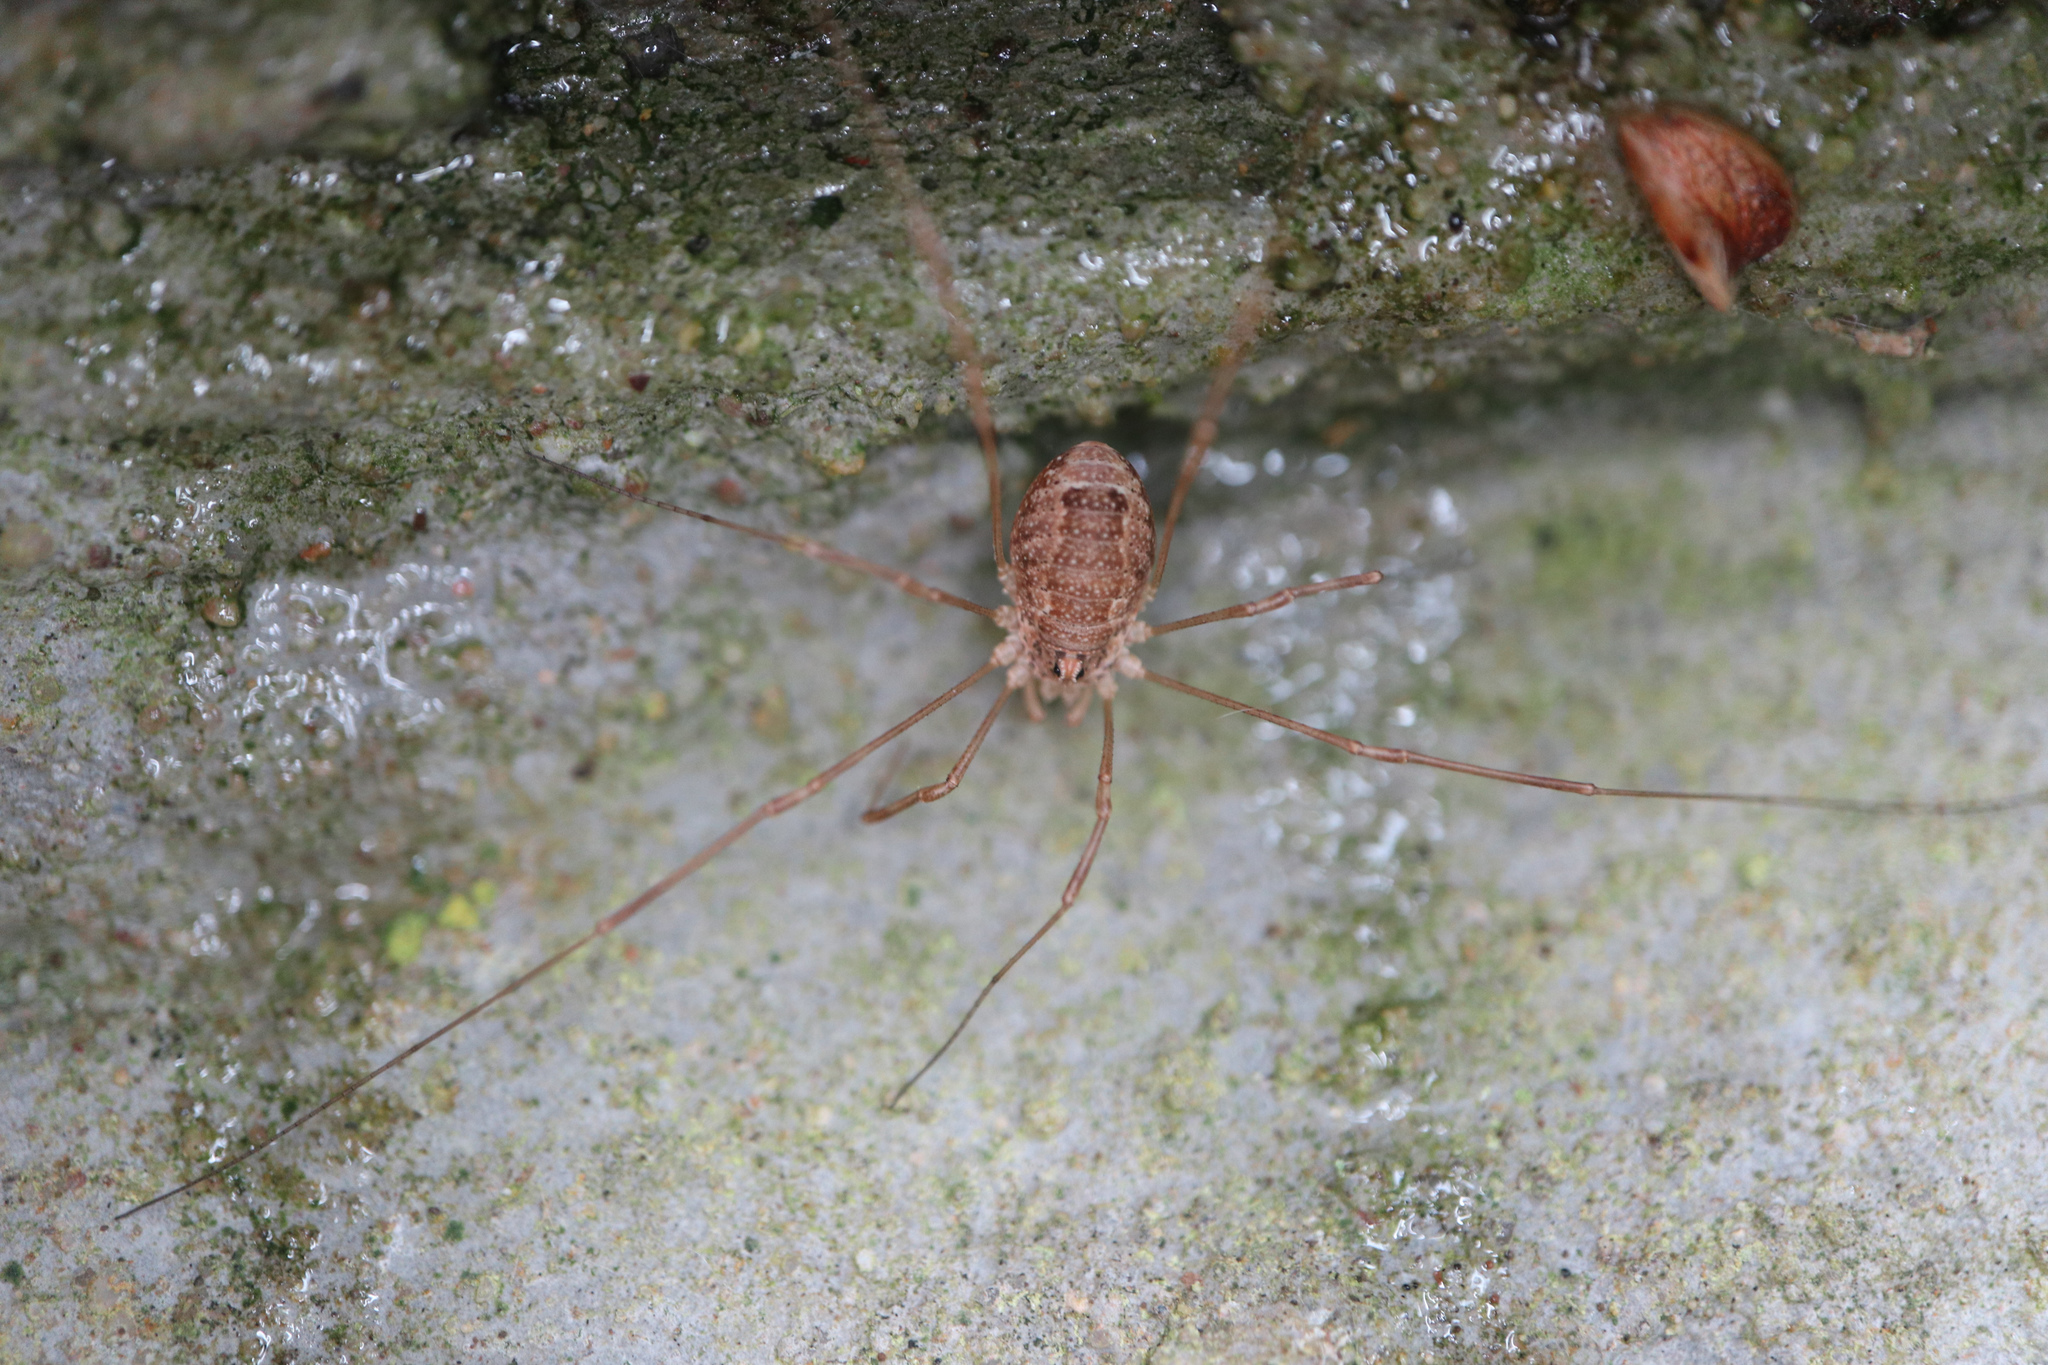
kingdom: Animalia
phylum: Arthropoda
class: Arachnida
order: Opiliones
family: Phalangiidae
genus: Rilaena
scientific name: Rilaena triangularis
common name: Spring harvestman
